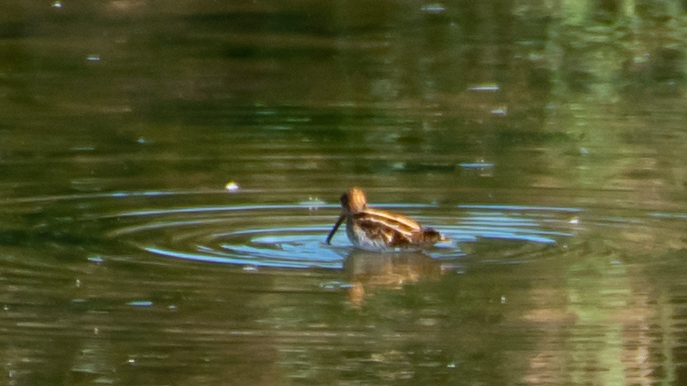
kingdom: Animalia
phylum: Chordata
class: Aves
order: Charadriiformes
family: Scolopacidae
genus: Gallinago
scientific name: Gallinago gallinago
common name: Common snipe
